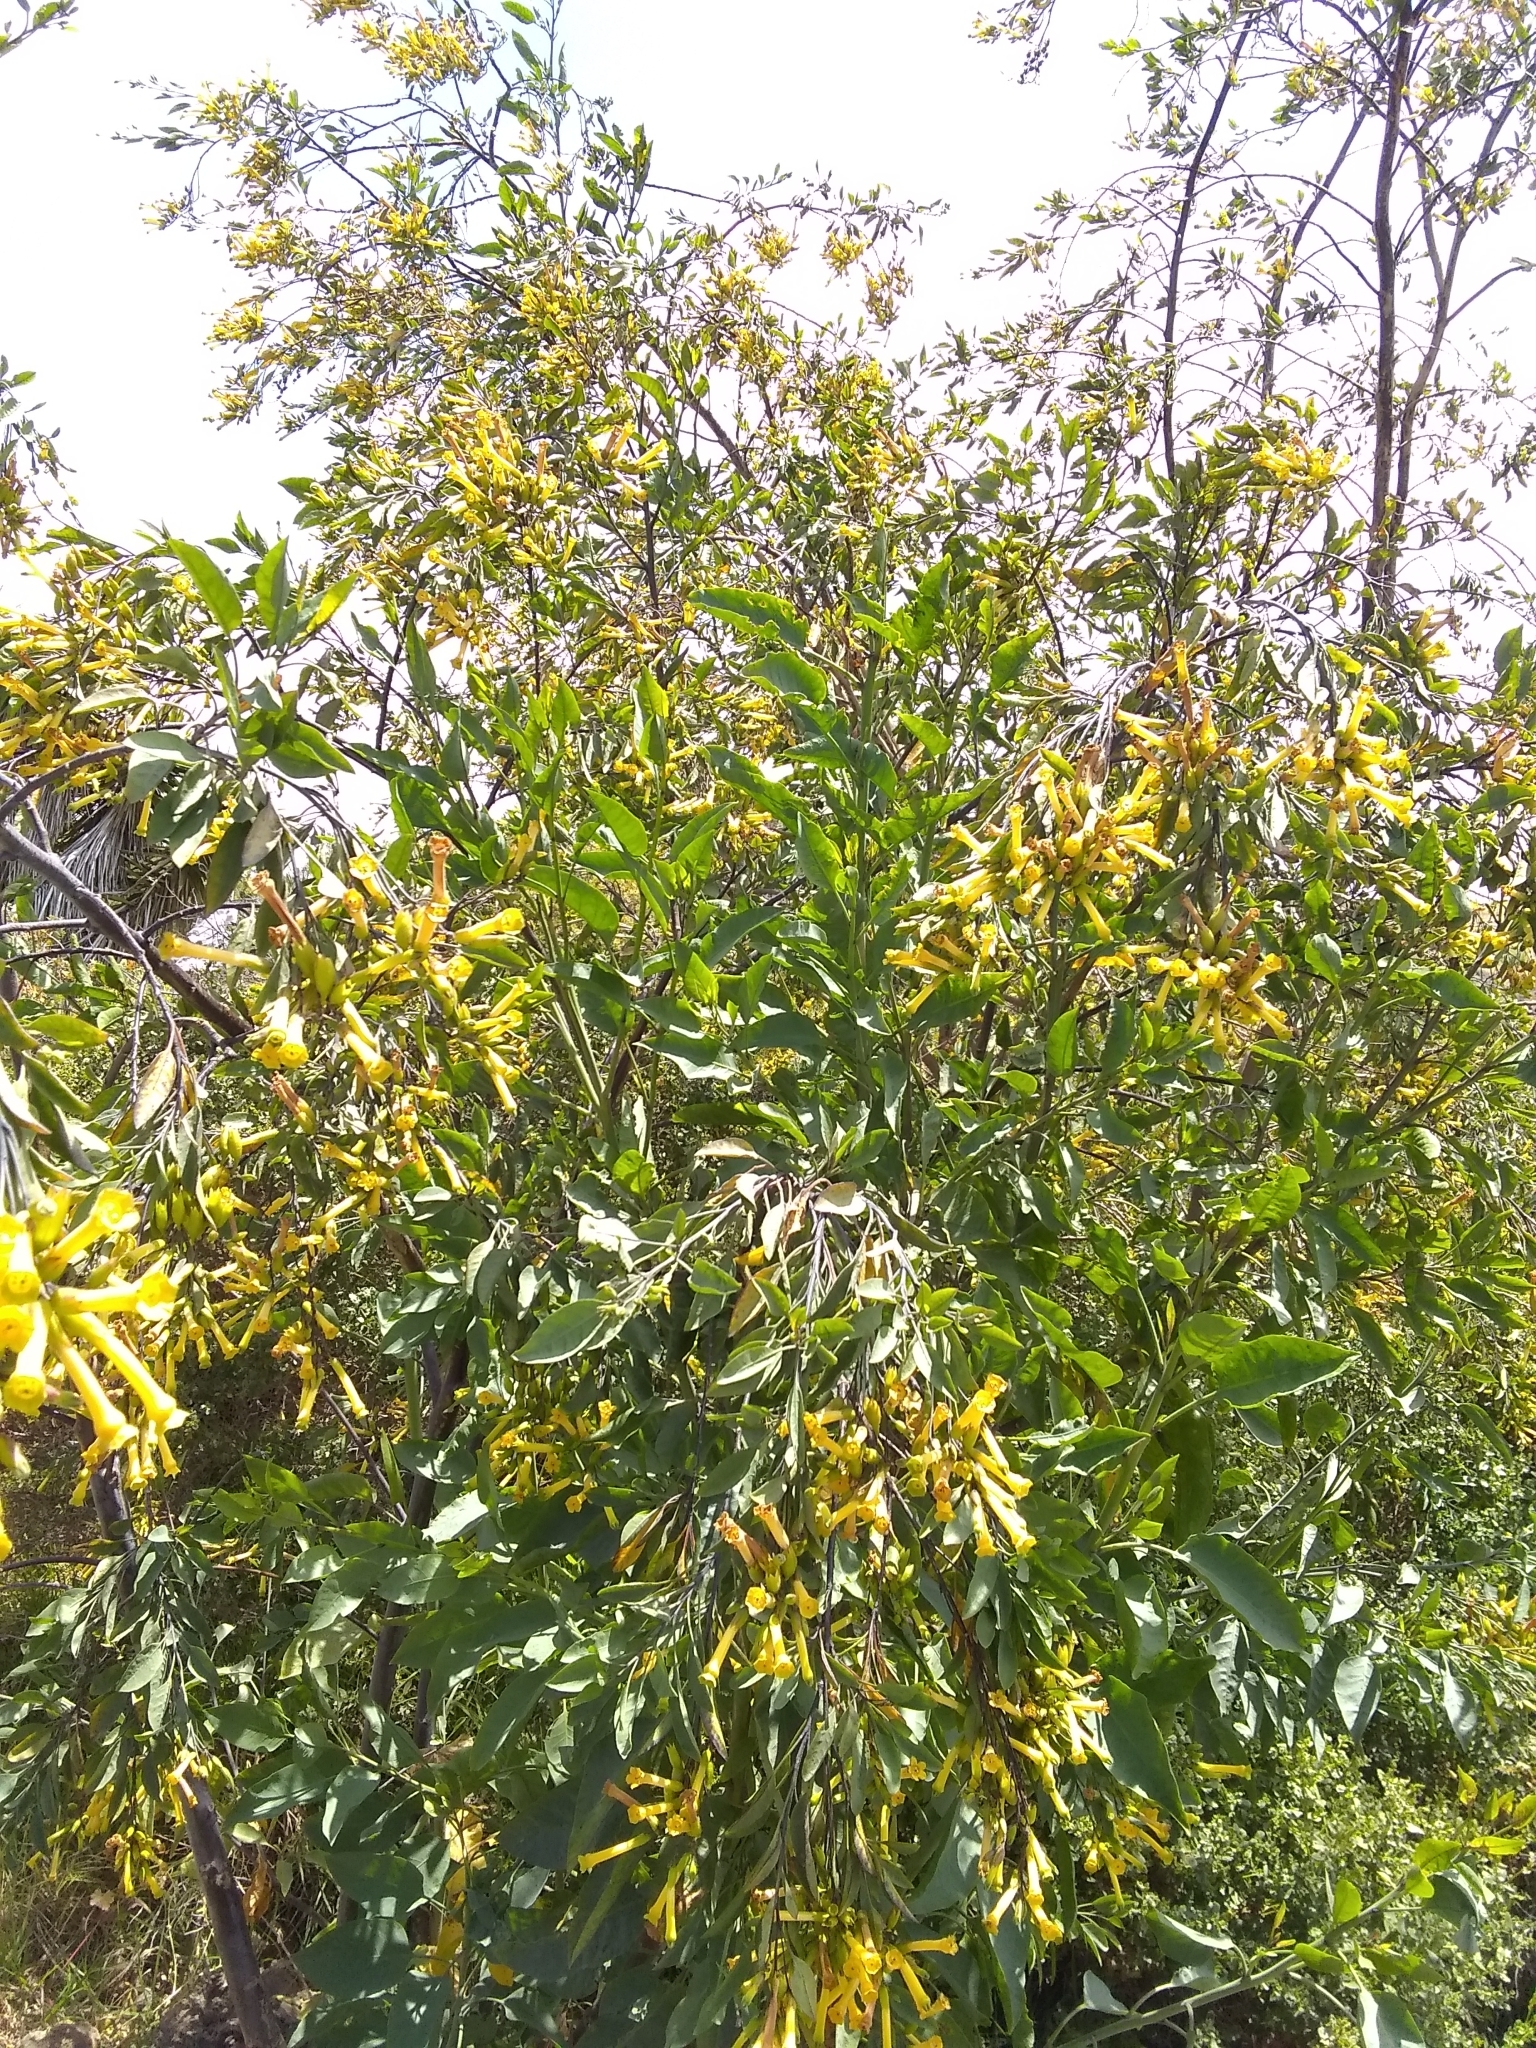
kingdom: Plantae
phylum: Tracheophyta
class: Magnoliopsida
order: Solanales
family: Solanaceae
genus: Nicotiana
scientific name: Nicotiana glauca
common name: Tree tobacco
